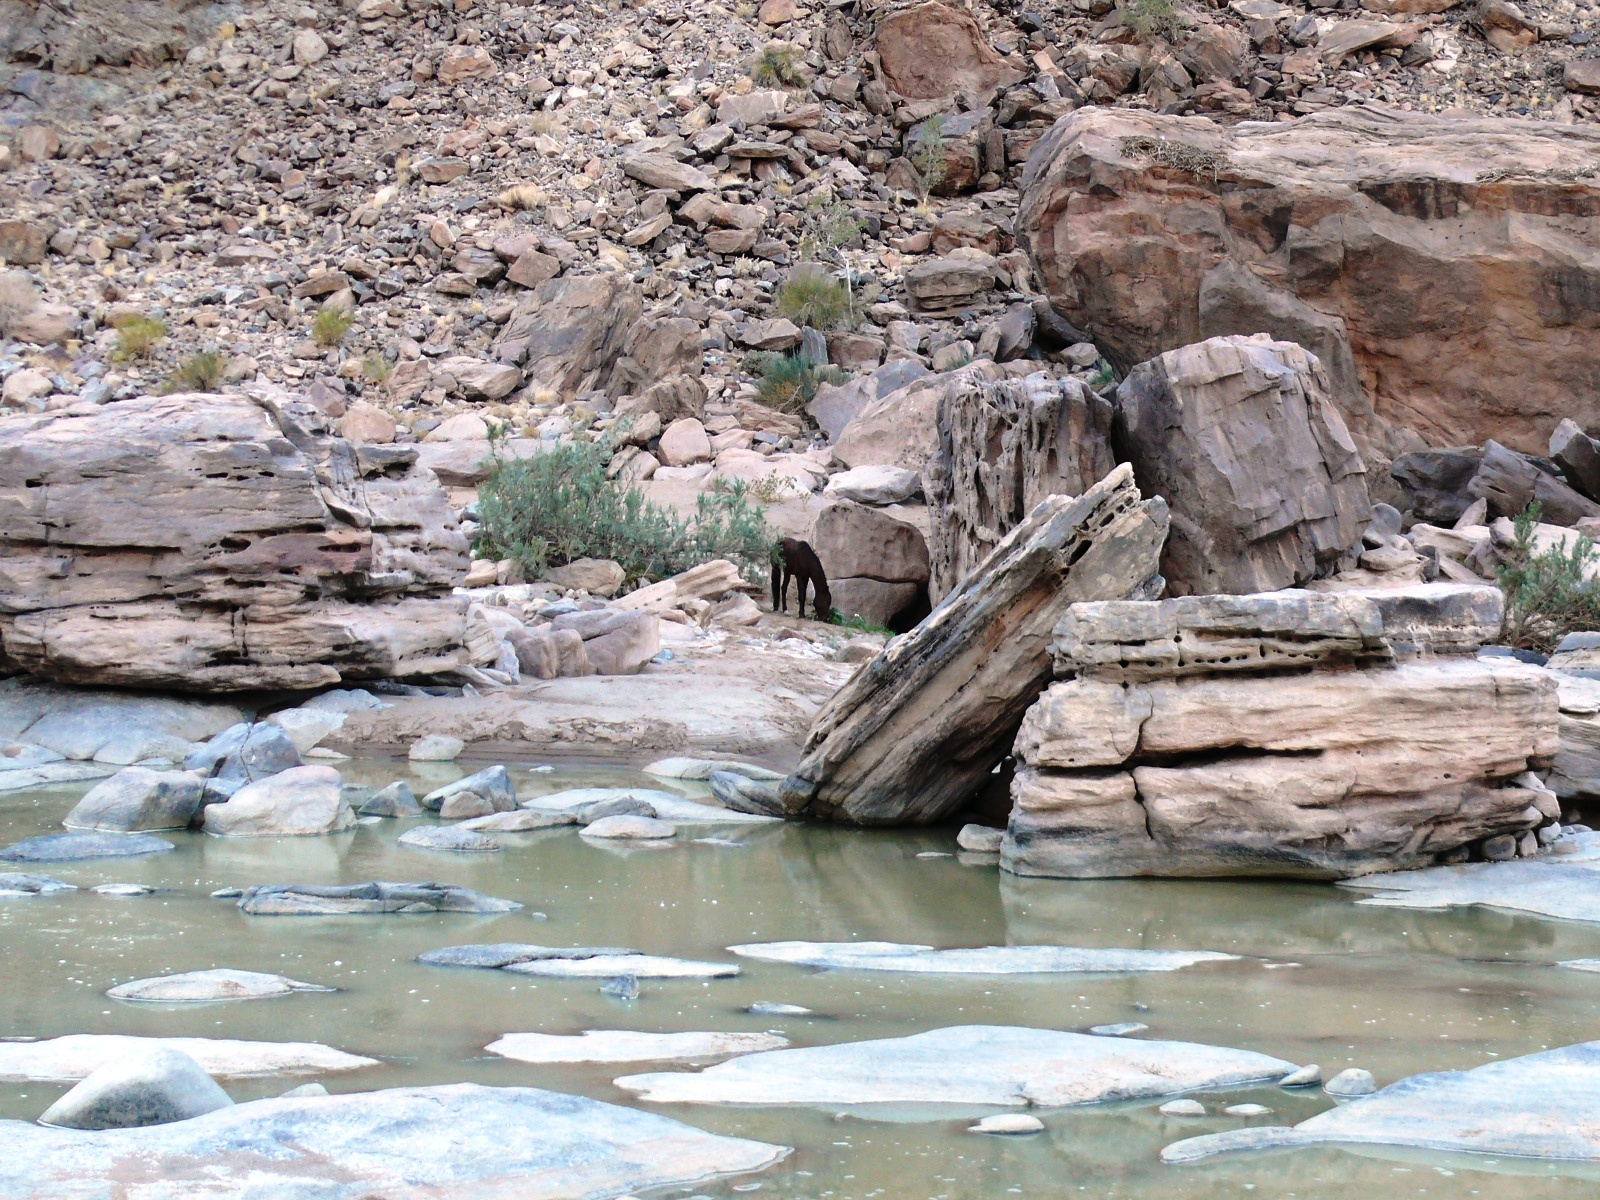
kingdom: Animalia
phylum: Chordata
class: Mammalia
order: Perissodactyla
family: Equidae
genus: Equus
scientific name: Equus caballus
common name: Horse
